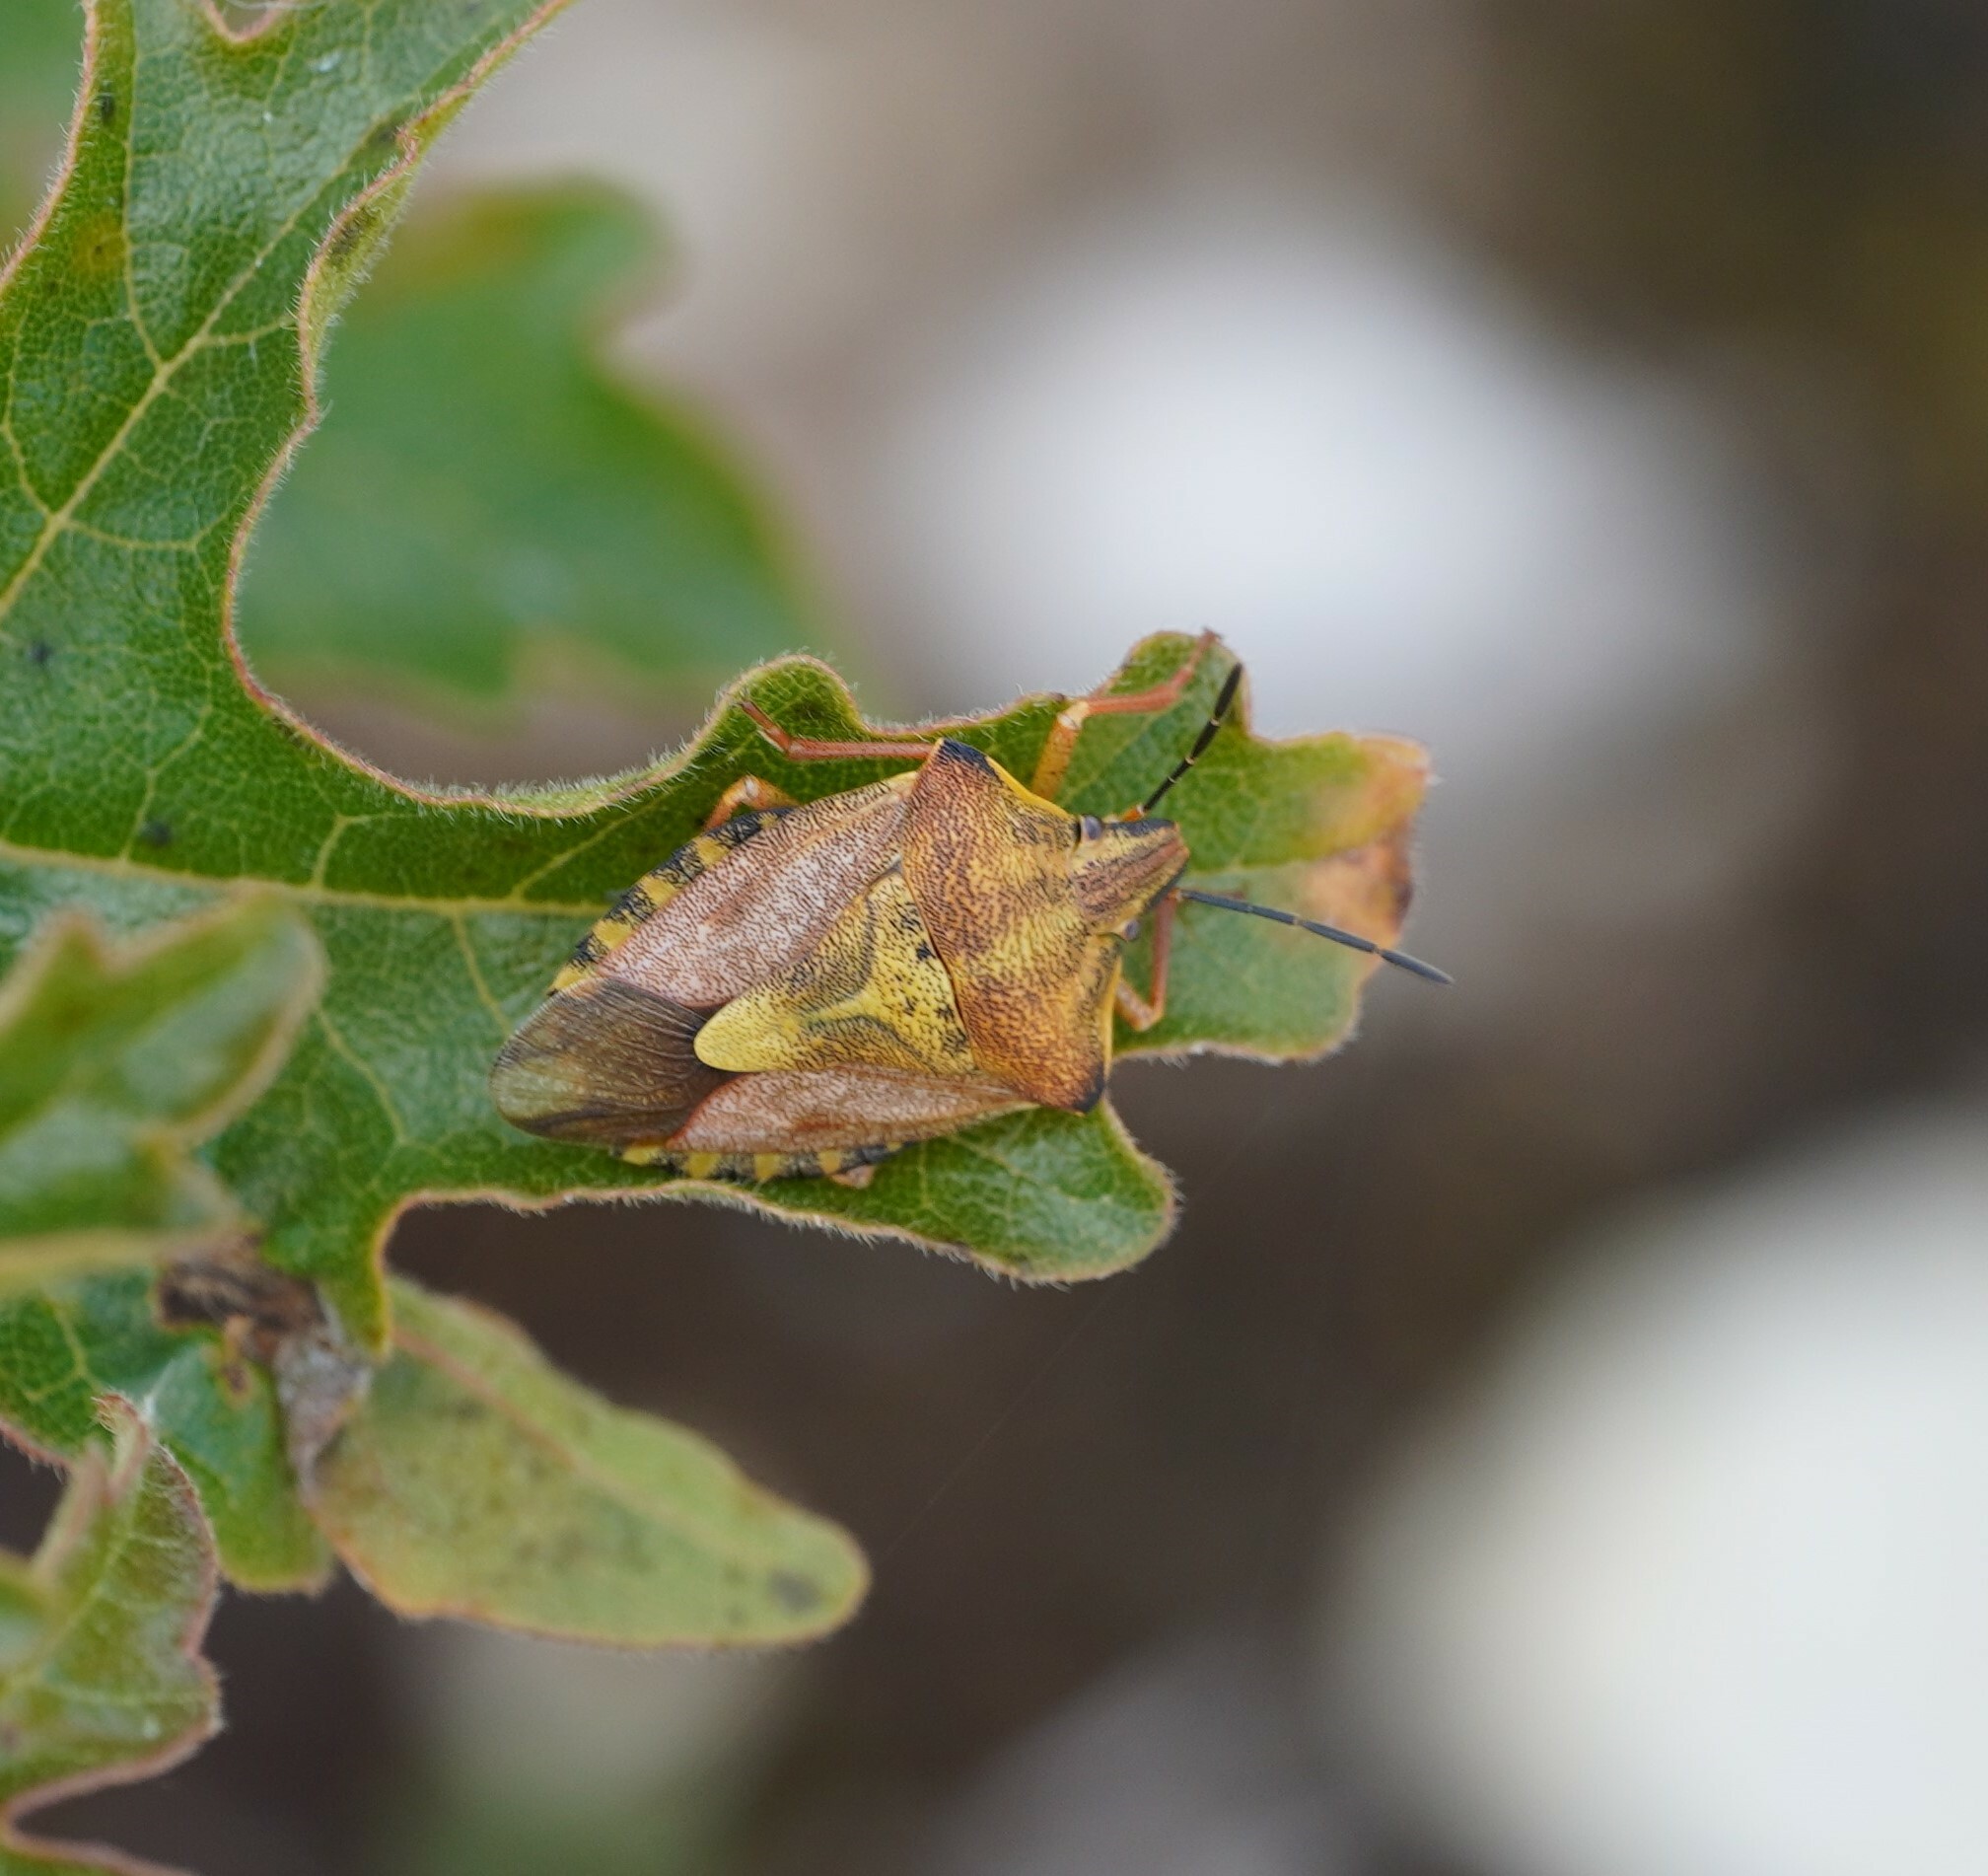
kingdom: Animalia
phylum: Arthropoda
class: Insecta
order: Hemiptera
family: Pentatomidae
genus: Carpocoris
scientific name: Carpocoris purpureipennis
